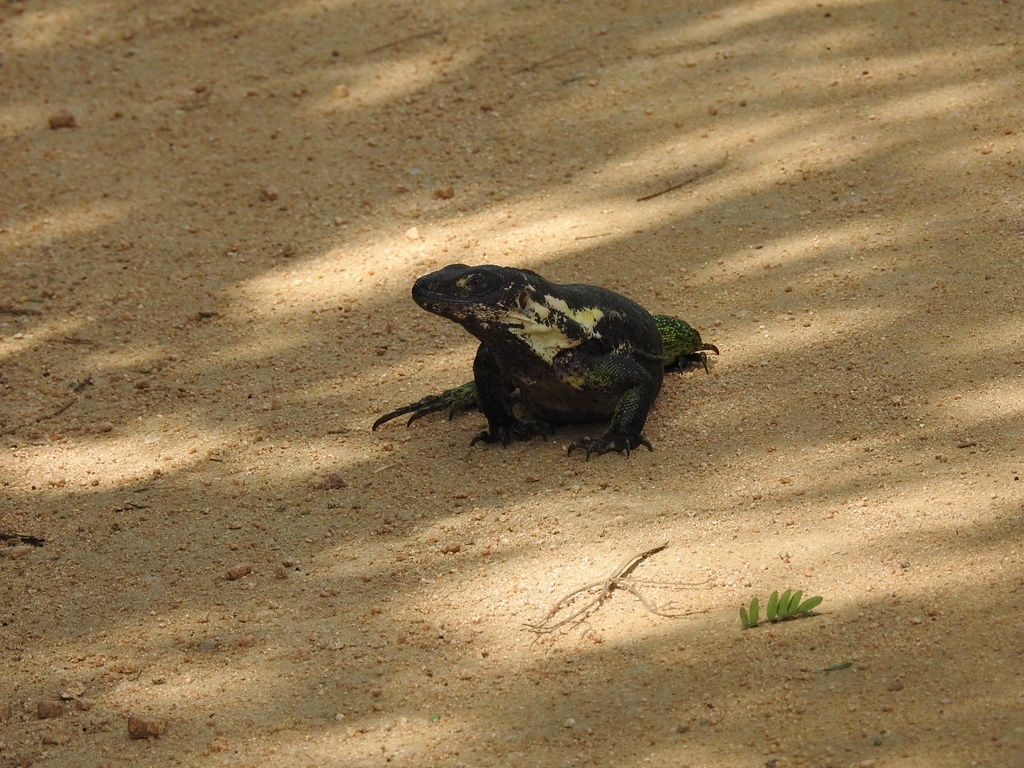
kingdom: Animalia
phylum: Chordata
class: Squamata
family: Iguanidae
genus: Ctenosaura
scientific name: Ctenosaura acanthura
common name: Northeastern spinytail iguana
